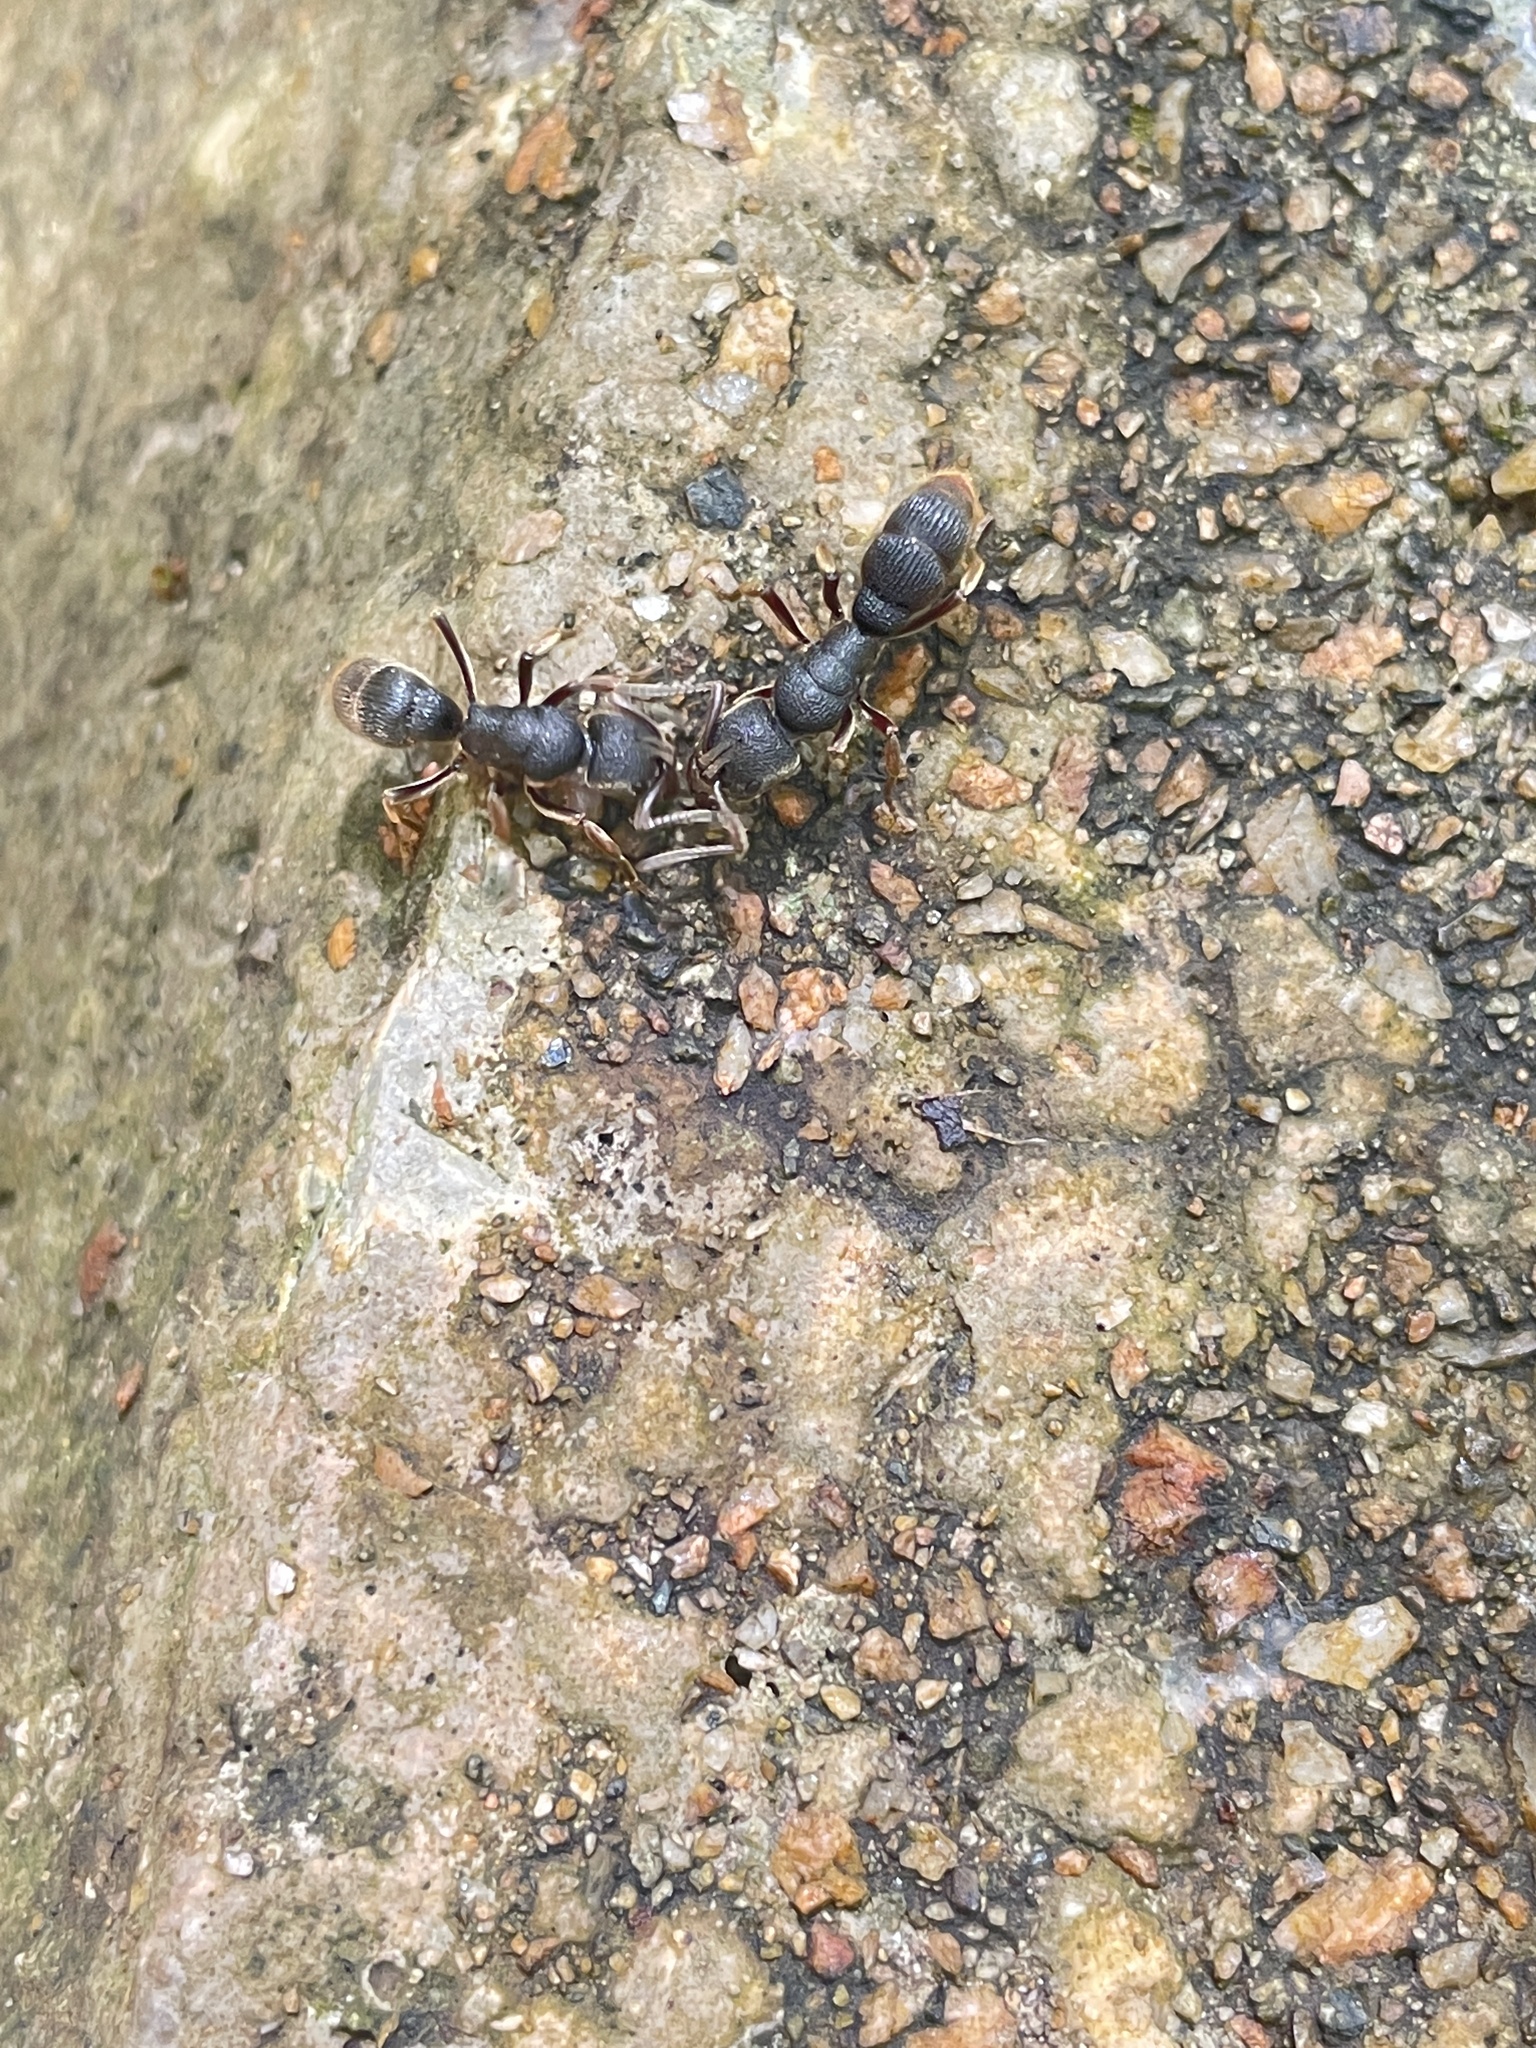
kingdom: Animalia
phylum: Arthropoda
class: Insecta
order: Hymenoptera
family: Formicidae
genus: Pseudoneoponera
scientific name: Pseudoneoponera rufipes
